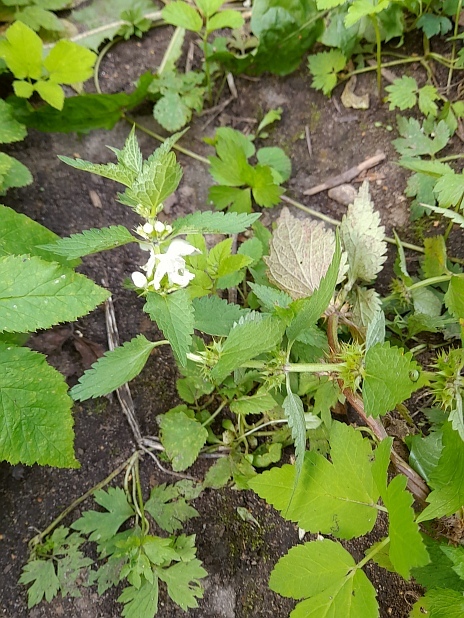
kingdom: Plantae
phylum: Tracheophyta
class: Magnoliopsida
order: Lamiales
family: Lamiaceae
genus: Lamium
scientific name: Lamium album
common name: White dead-nettle
